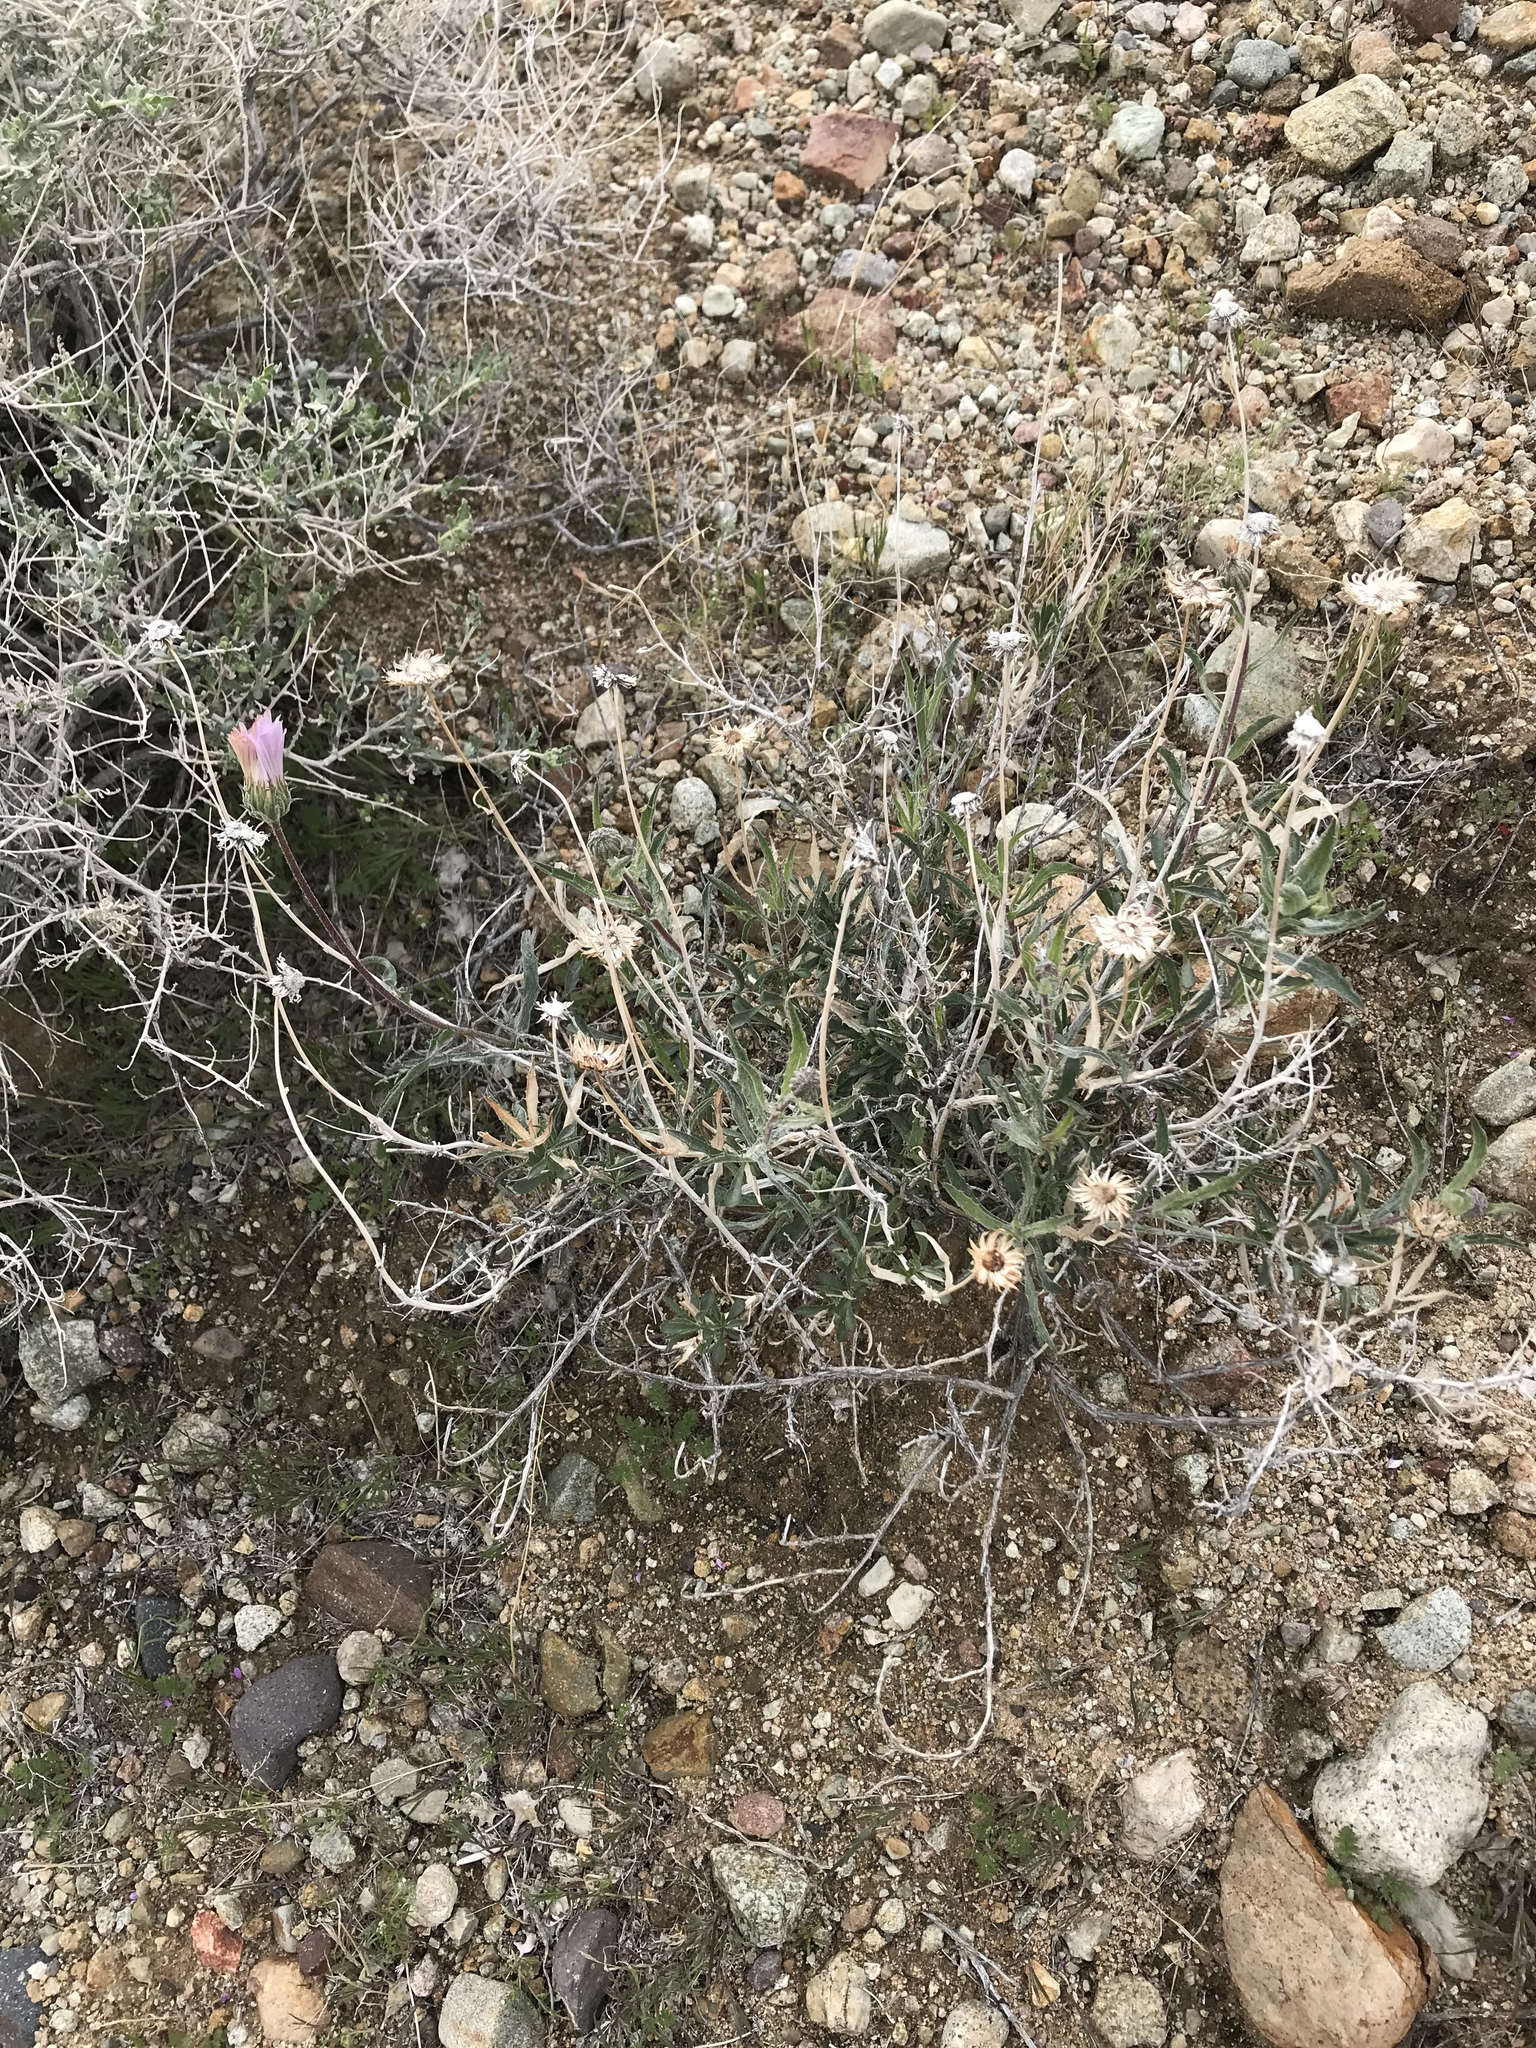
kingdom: Plantae
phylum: Tracheophyta
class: Magnoliopsida
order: Asterales
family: Asteraceae
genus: Xylorhiza
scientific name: Xylorhiza tortifolia
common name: Hurt-leaf woody-aster
